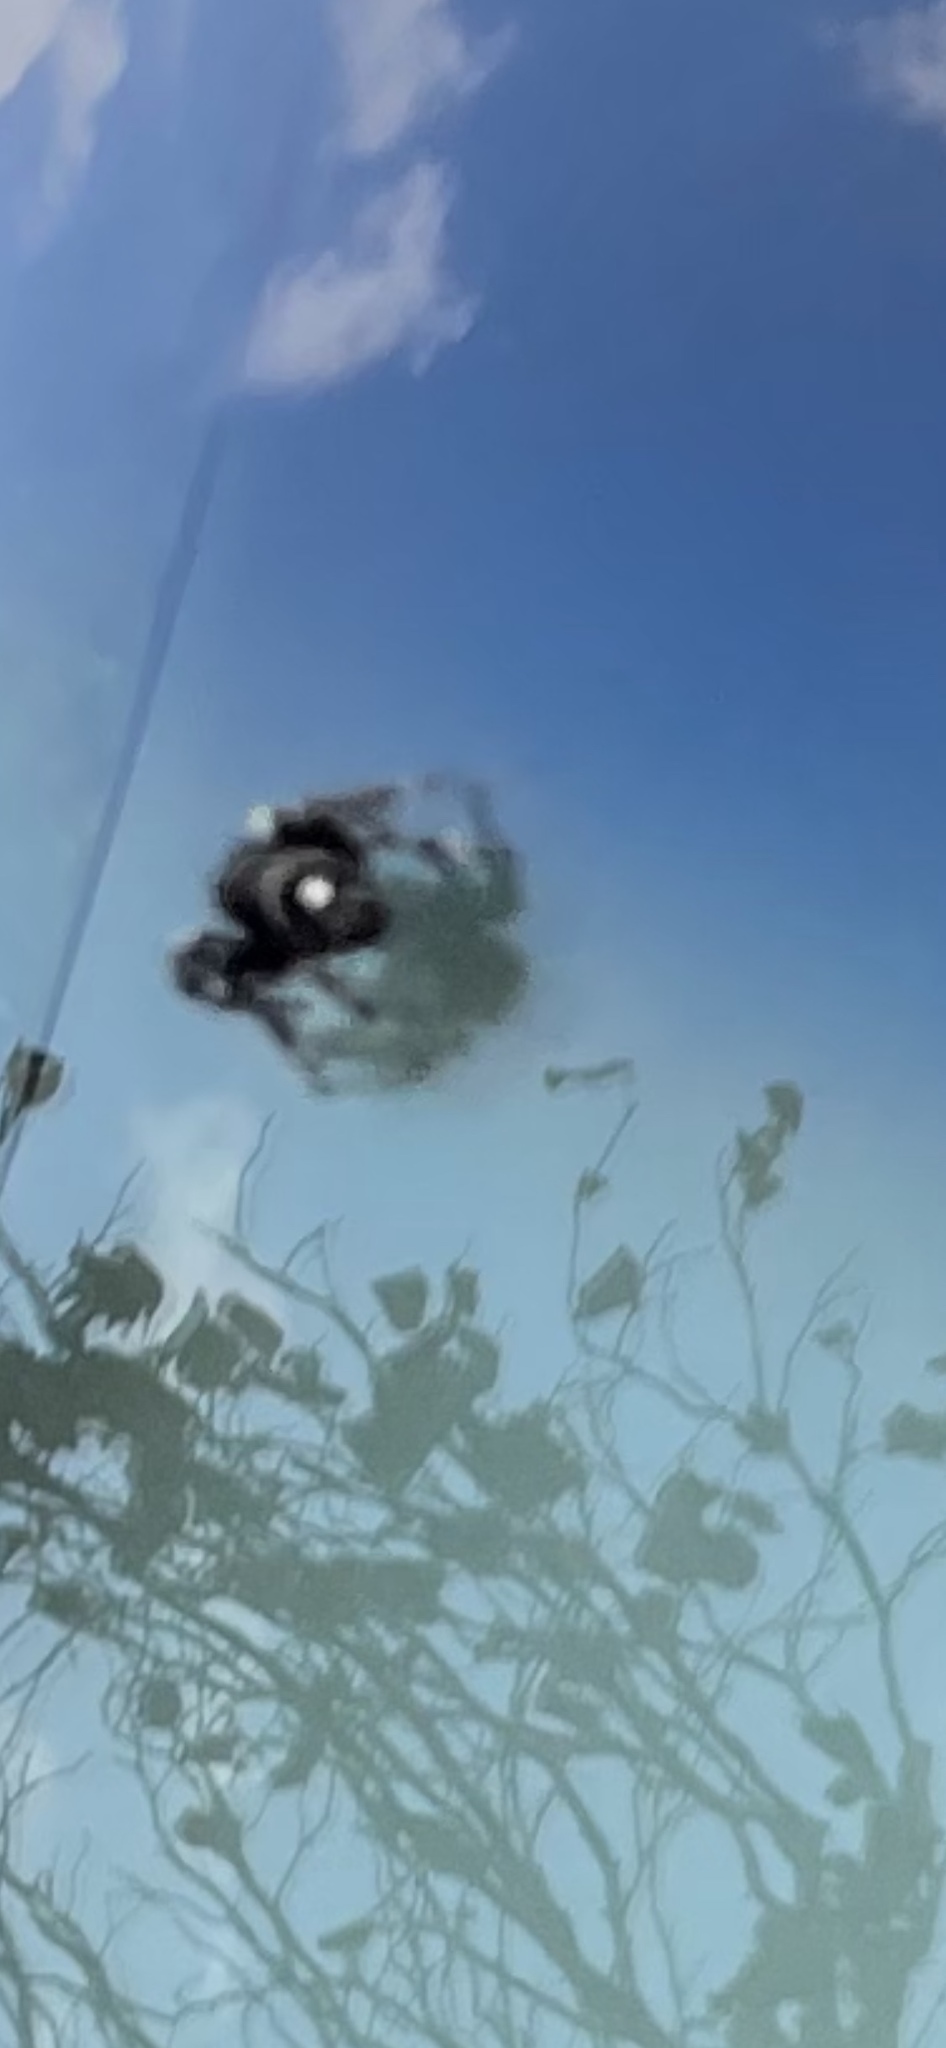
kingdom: Animalia
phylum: Arthropoda
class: Arachnida
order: Araneae
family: Salticidae
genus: Phidippus
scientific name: Phidippus audax
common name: Bold jumper
